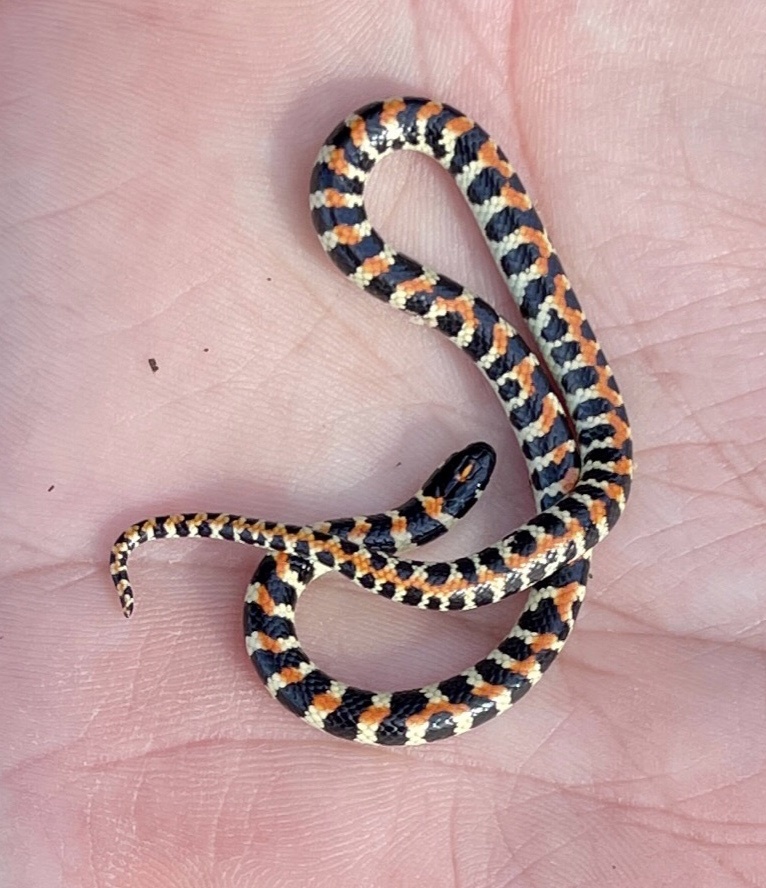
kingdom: Animalia
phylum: Chordata
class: Squamata
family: Atractaspididae
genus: Homoroselaps
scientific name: Homoroselaps lacteus
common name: Spotted harlequin snake
